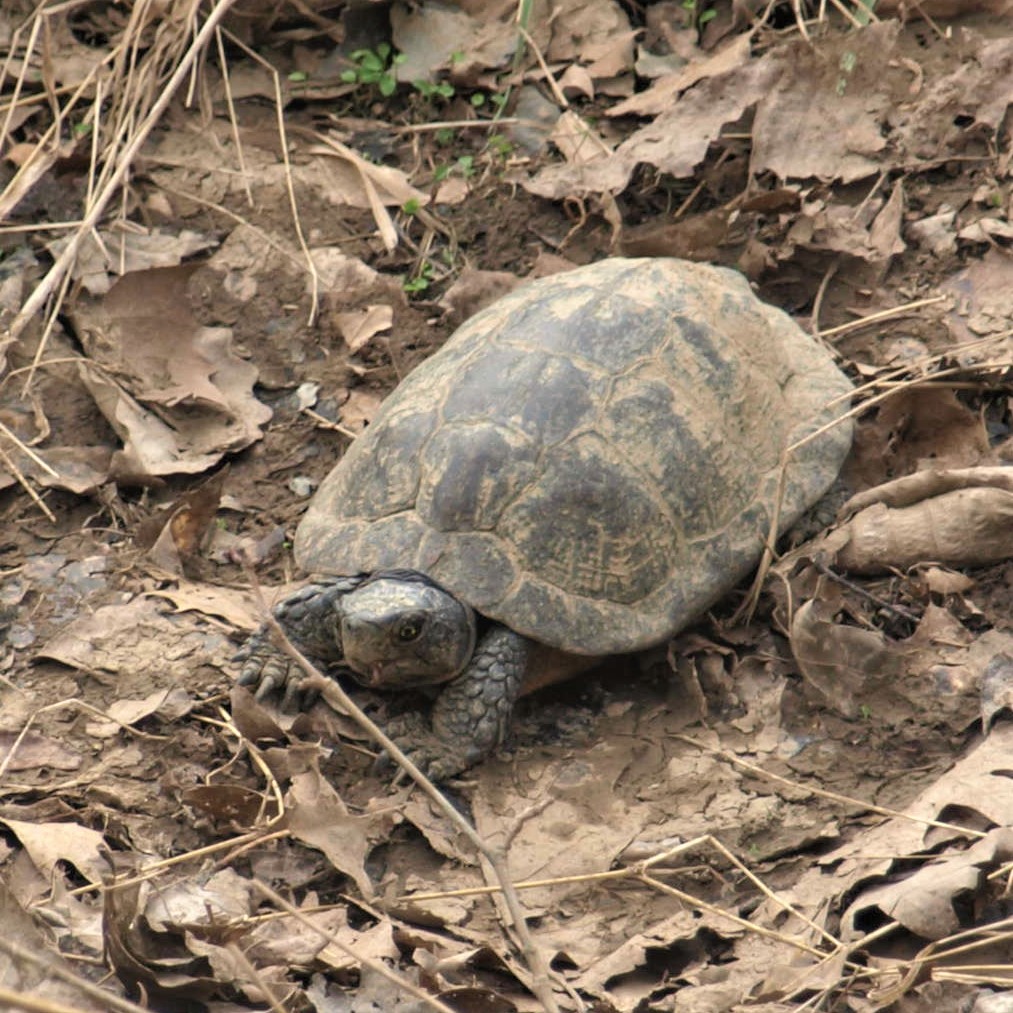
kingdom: Animalia
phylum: Chordata
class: Testudines
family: Emydidae
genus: Glyptemys
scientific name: Glyptemys insculpta
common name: Wood turtle
